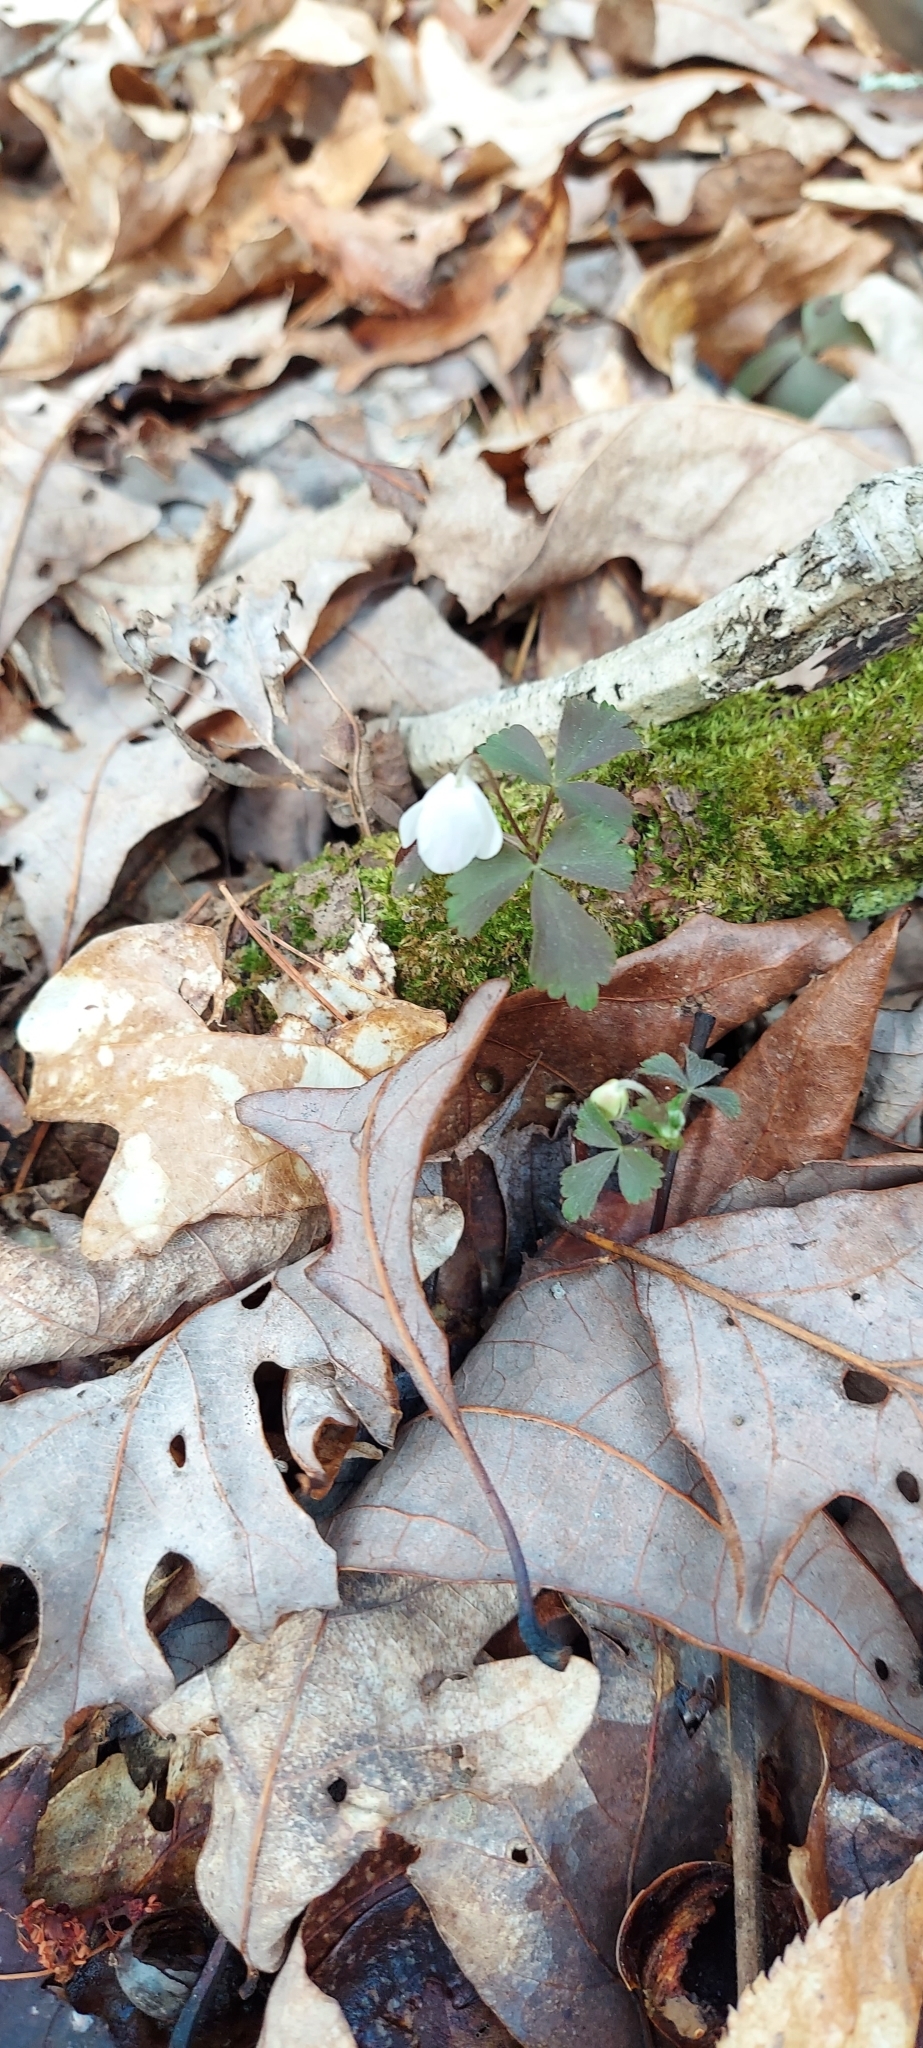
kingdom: Plantae
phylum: Tracheophyta
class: Magnoliopsida
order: Ranunculales
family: Ranunculaceae
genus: Anemone
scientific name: Anemone quinquefolia
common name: Wood anemone
